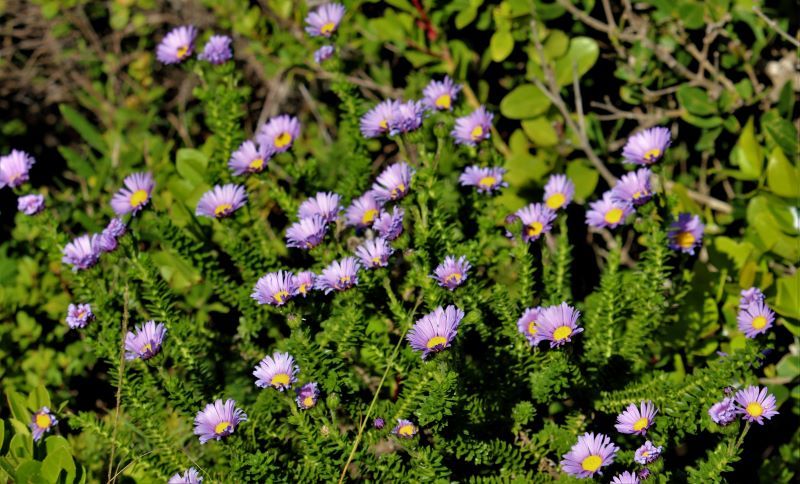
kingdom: Plantae
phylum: Tracheophyta
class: Magnoliopsida
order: Asterales
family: Asteraceae
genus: Felicia
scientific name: Felicia echinata
